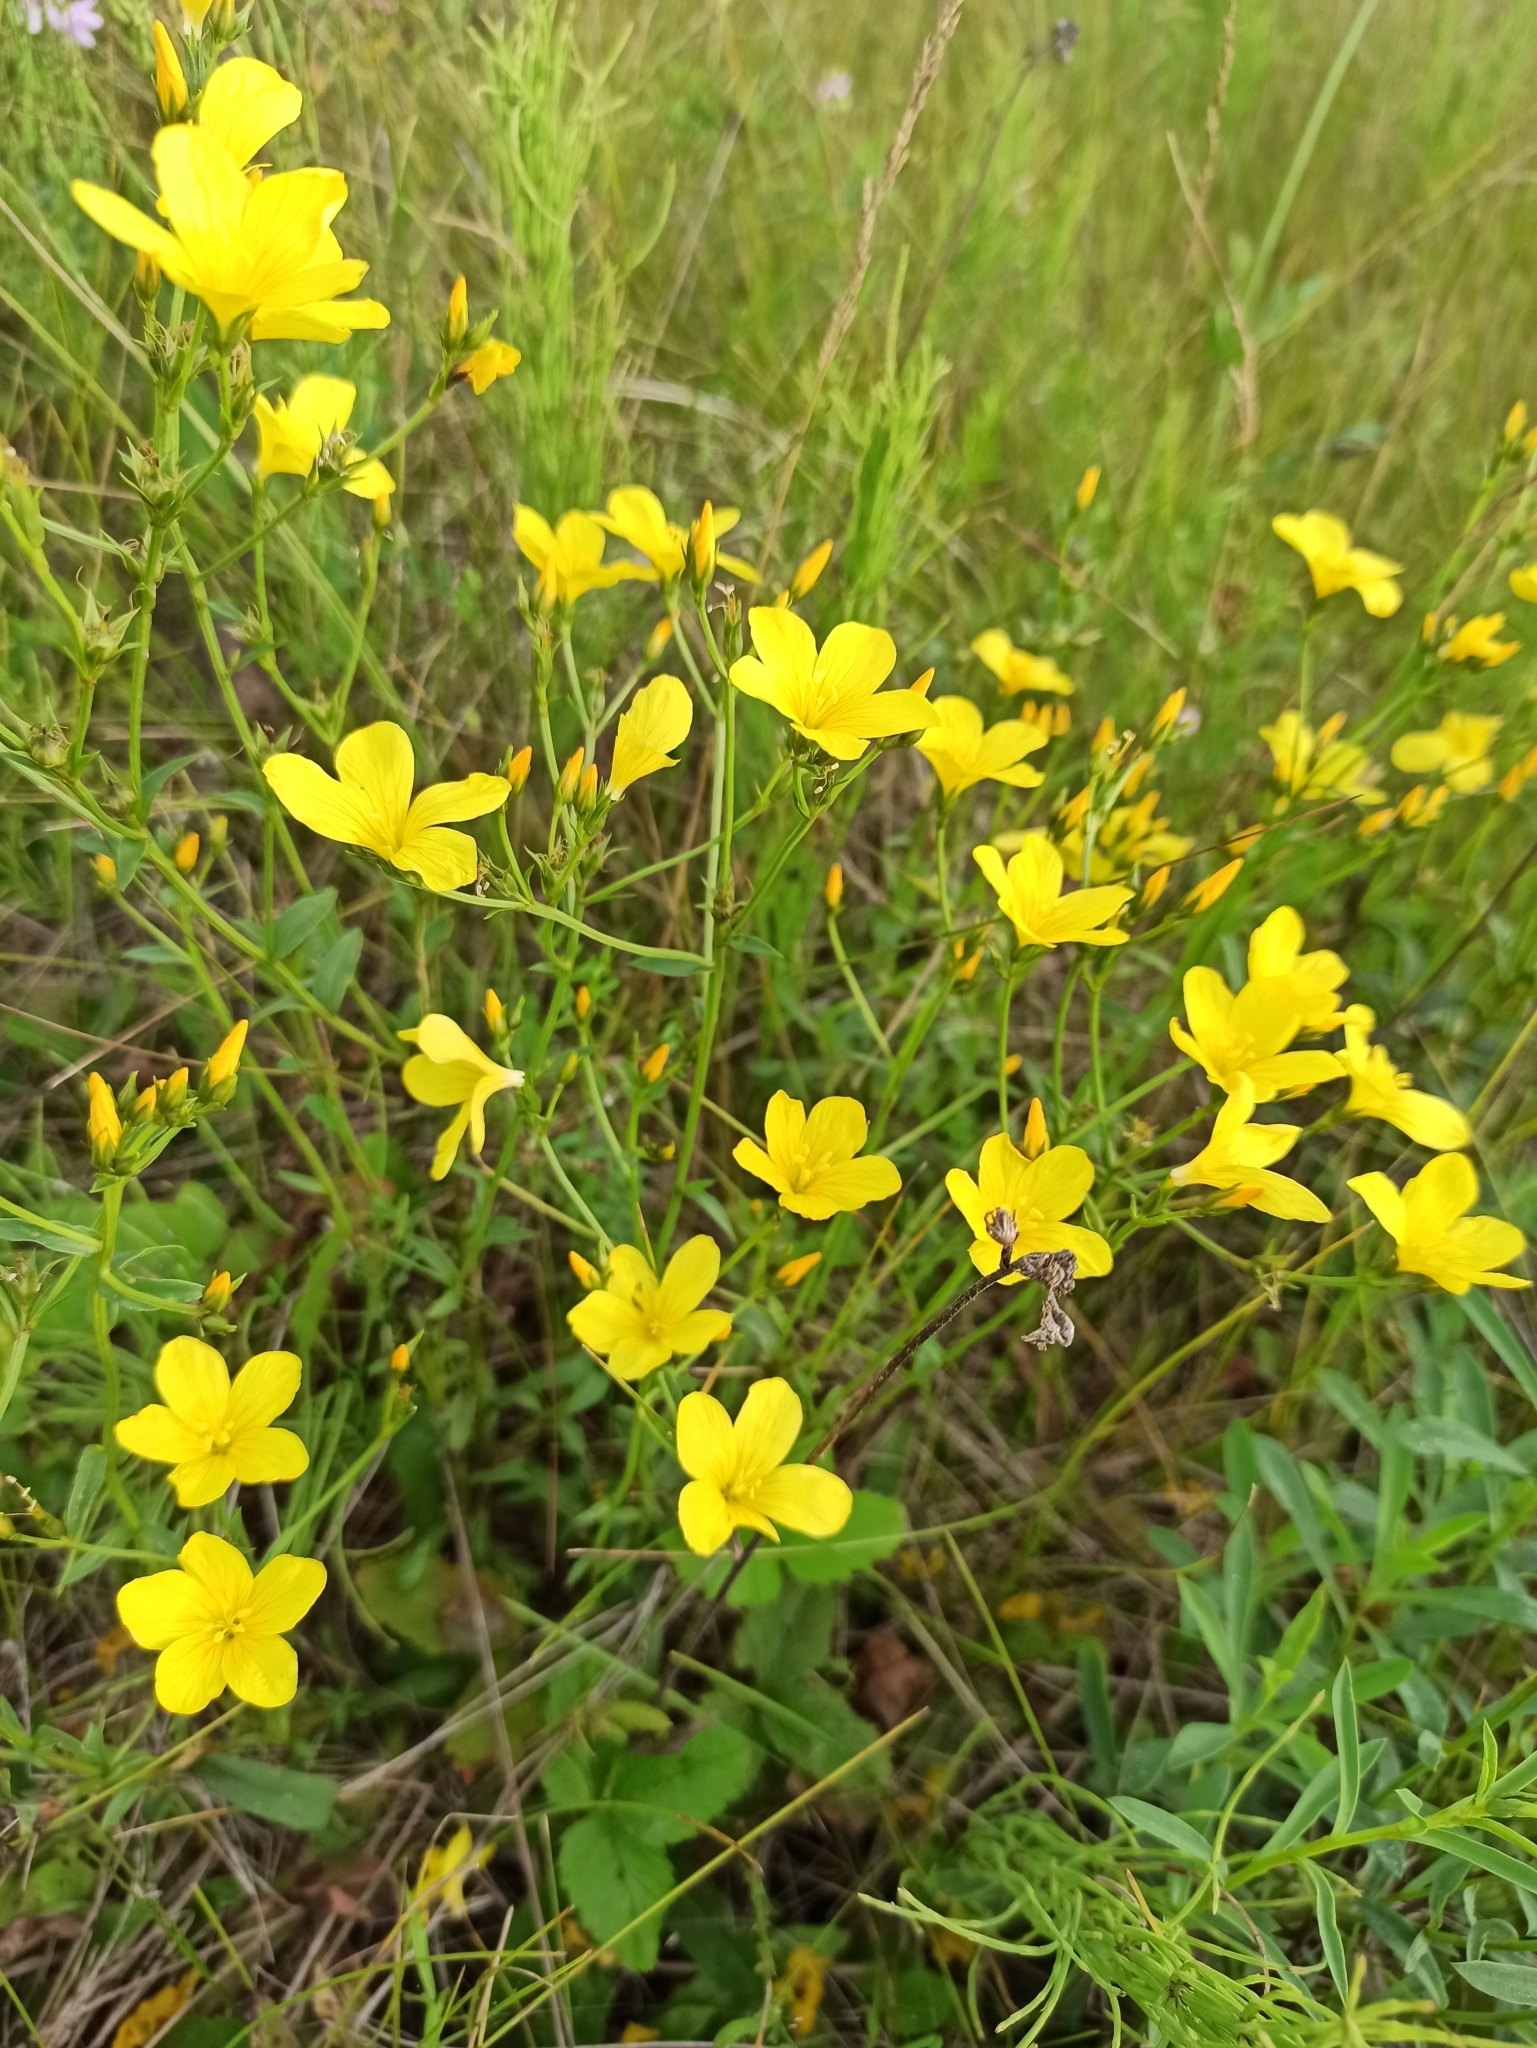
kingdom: Plantae
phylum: Tracheophyta
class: Magnoliopsida
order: Malpighiales
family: Linaceae
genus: Linum
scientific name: Linum flavum
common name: Yellow flax
